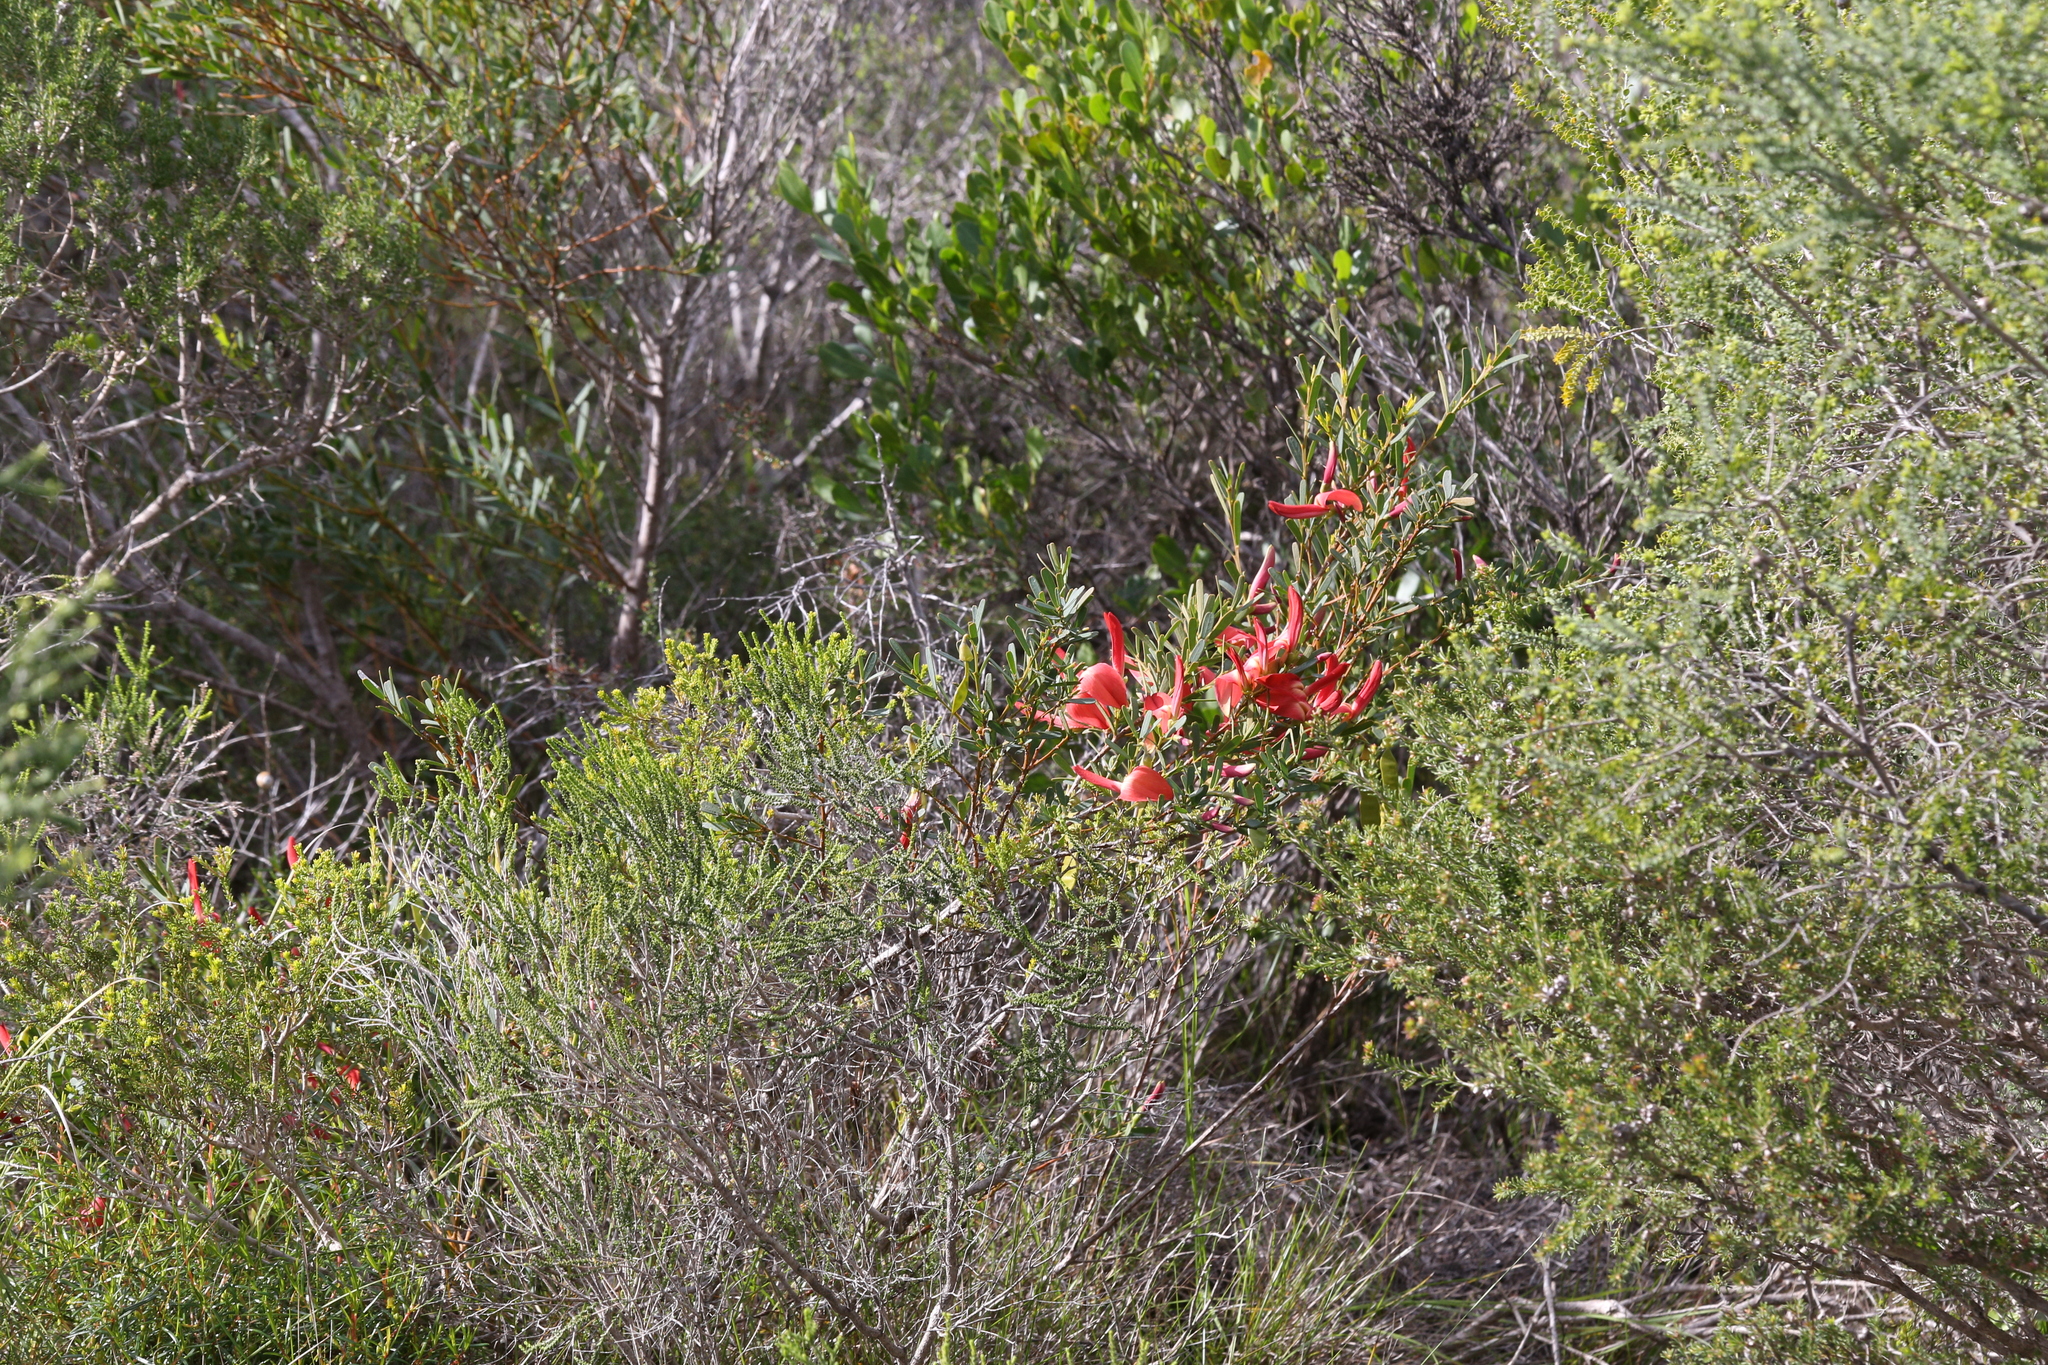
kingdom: Plantae
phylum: Tracheophyta
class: Magnoliopsida
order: Fabales
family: Fabaceae
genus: Templetonia
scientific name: Templetonia retusa
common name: Cockies'-tongue
